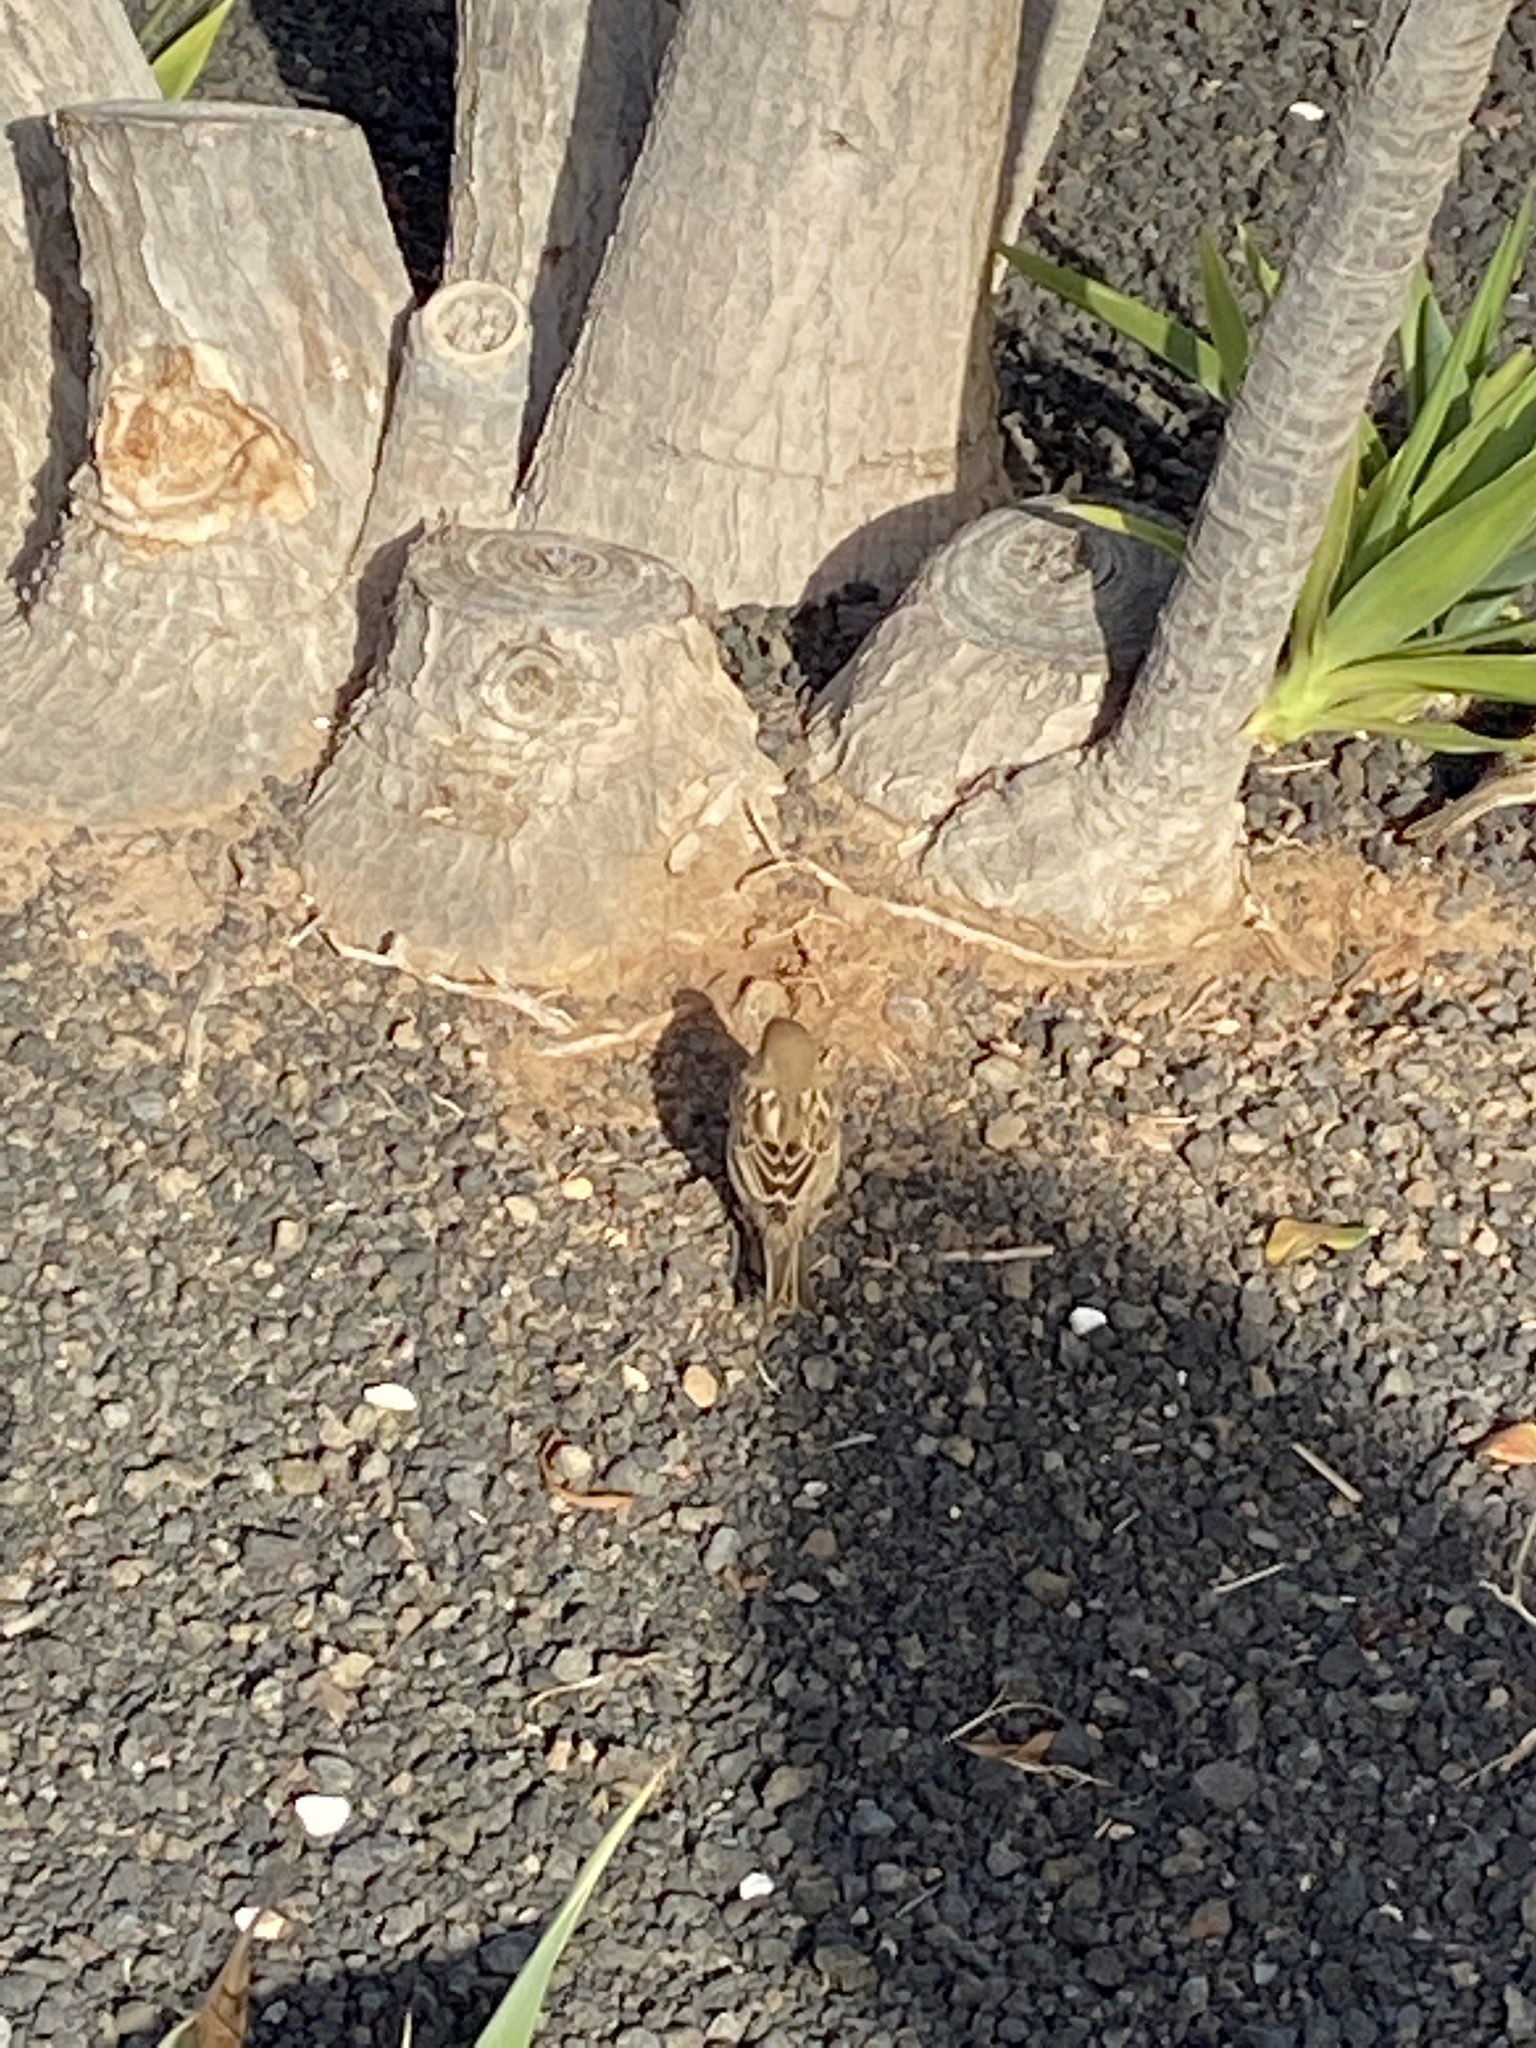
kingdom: Animalia
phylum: Chordata
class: Aves
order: Passeriformes
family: Passeridae
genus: Passer
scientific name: Passer hispaniolensis
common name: Spanish sparrow
